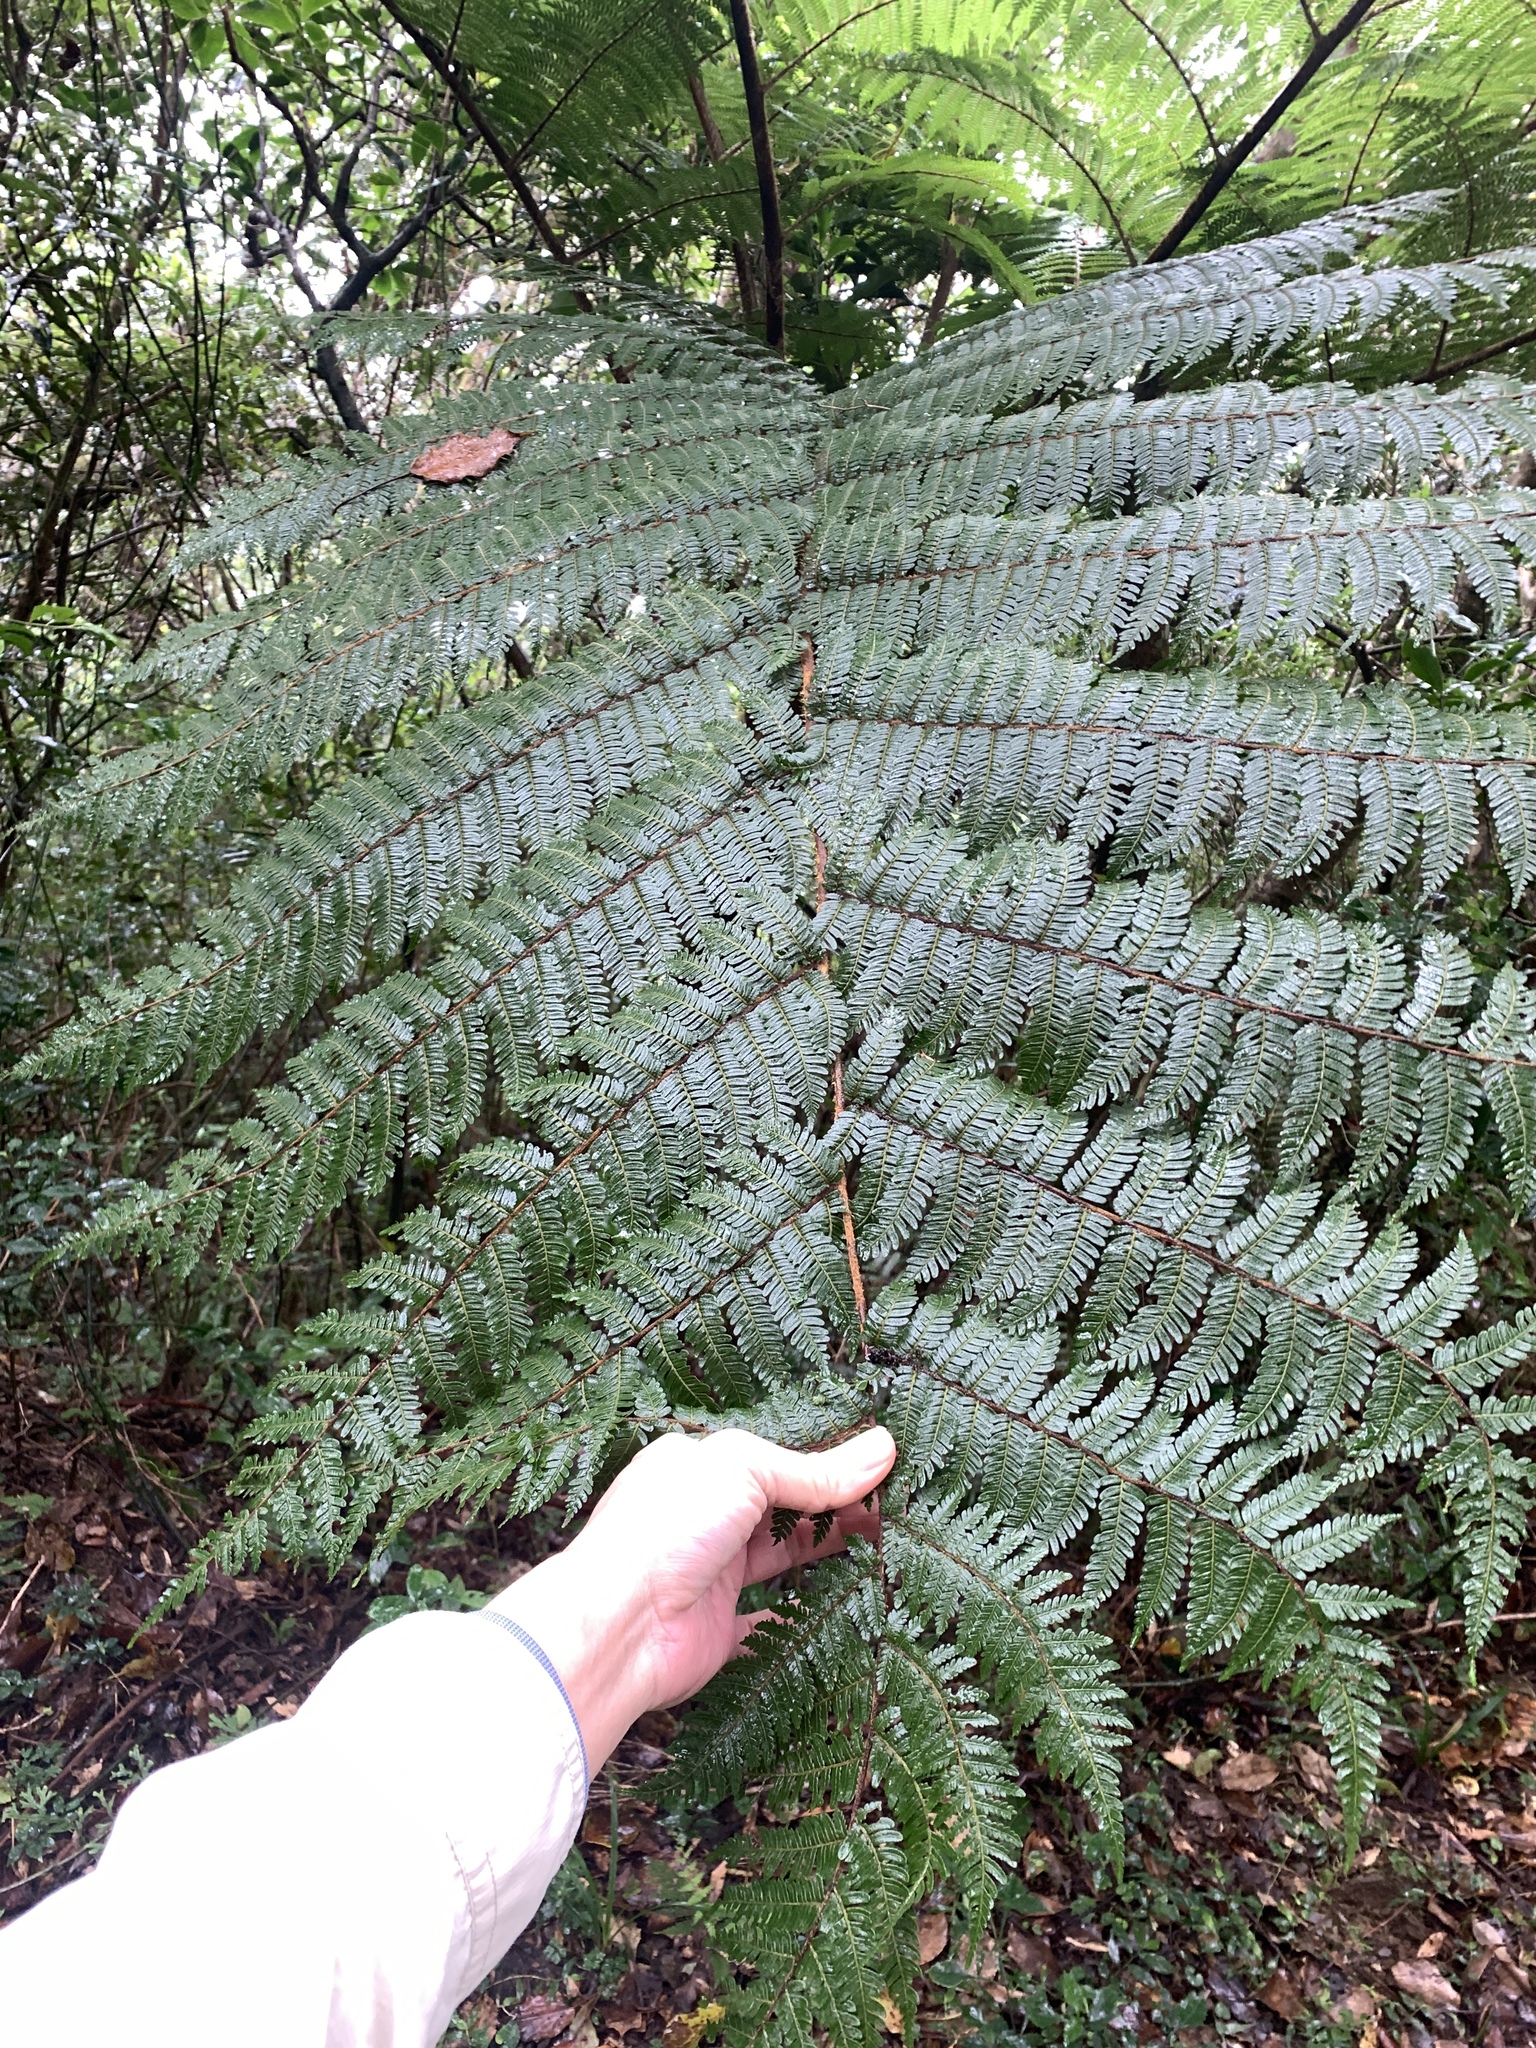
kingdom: Plantae
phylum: Tracheophyta
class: Polypodiopsida
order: Cyatheales
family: Cyatheaceae
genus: Alsophila
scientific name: Alsophila loheri
